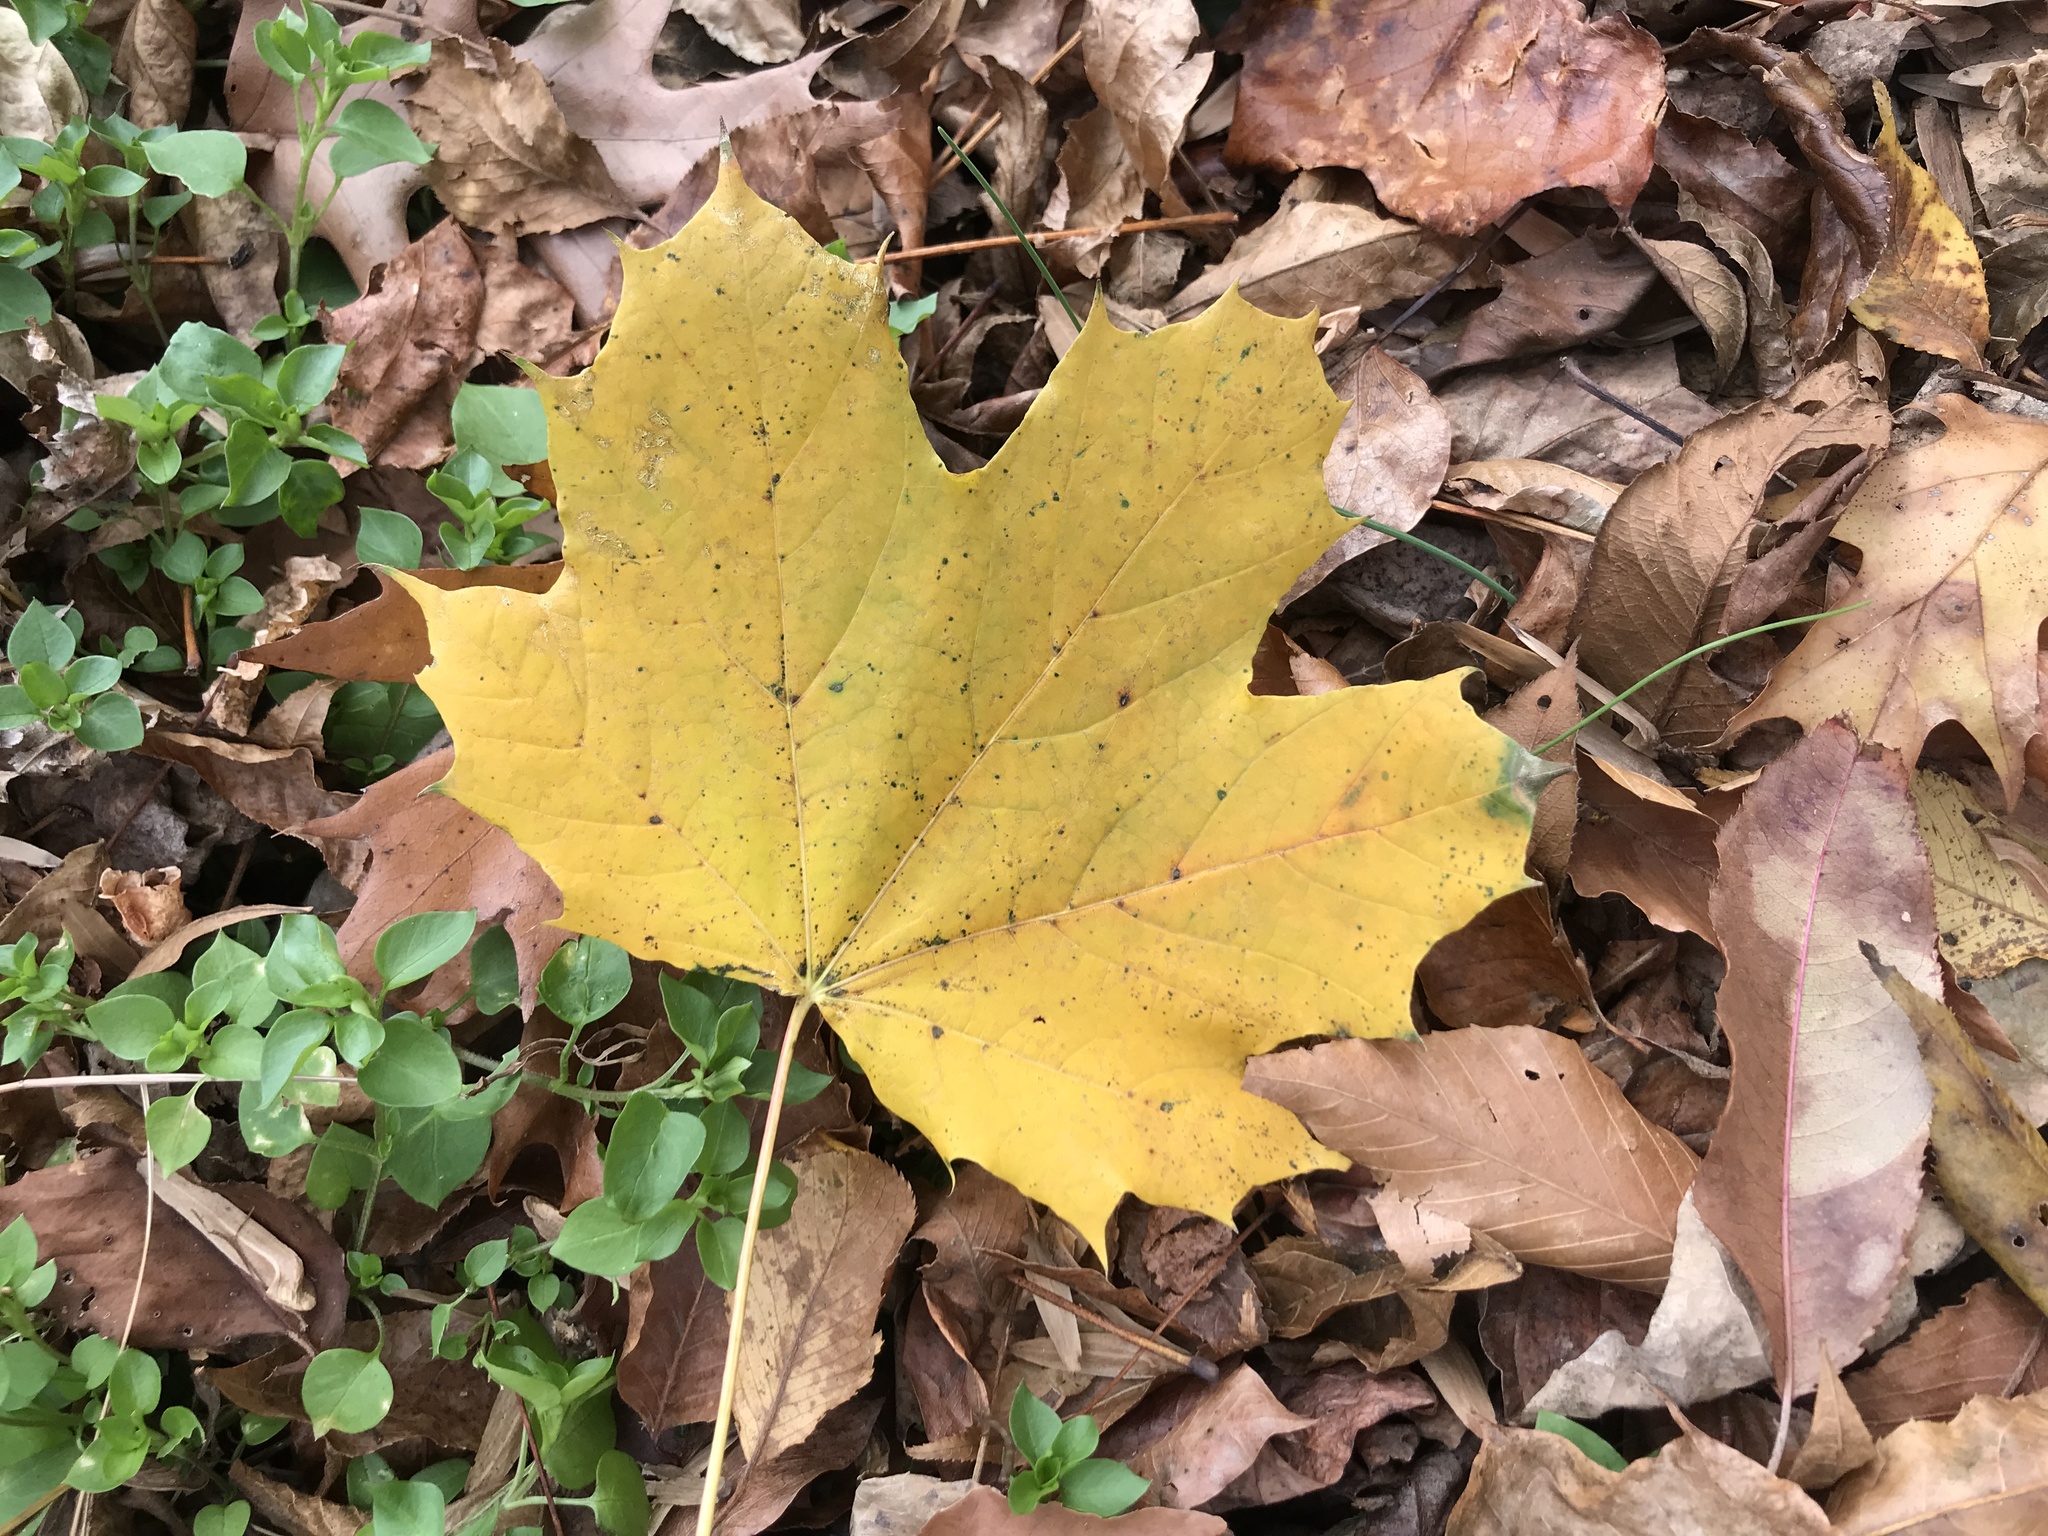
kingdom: Plantae
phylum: Tracheophyta
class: Magnoliopsida
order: Sapindales
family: Sapindaceae
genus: Acer
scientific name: Acer platanoides
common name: Norway maple
